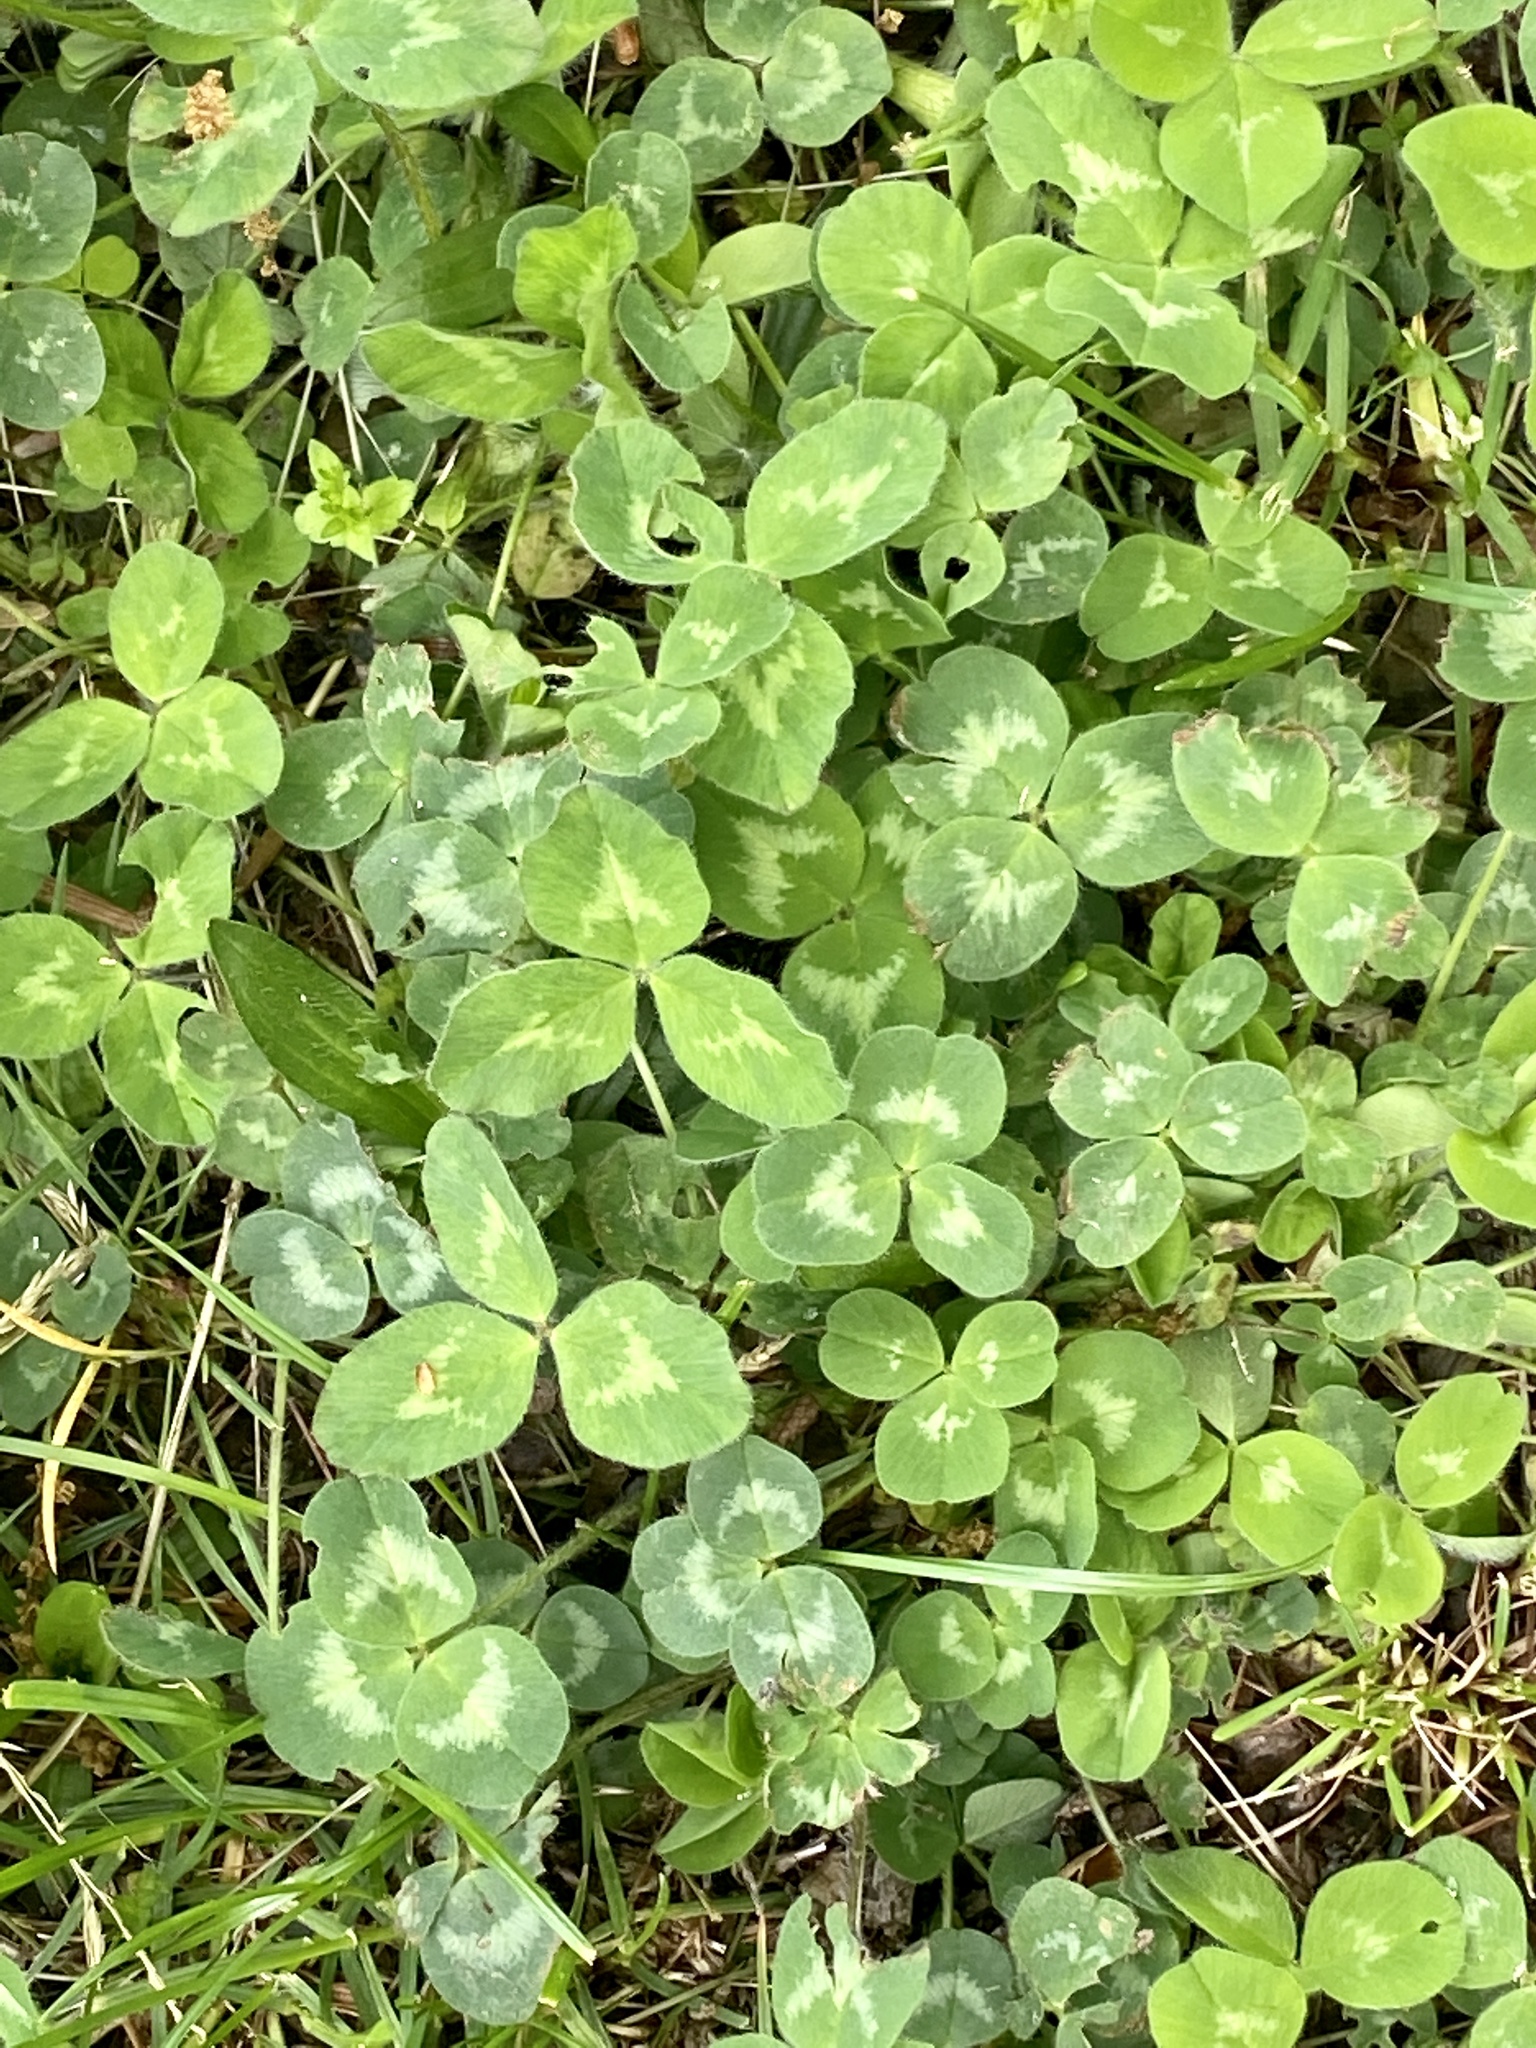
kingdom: Plantae
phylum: Tracheophyta
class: Magnoliopsida
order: Fabales
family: Fabaceae
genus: Trifolium
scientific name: Trifolium pratense
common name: Red clover
